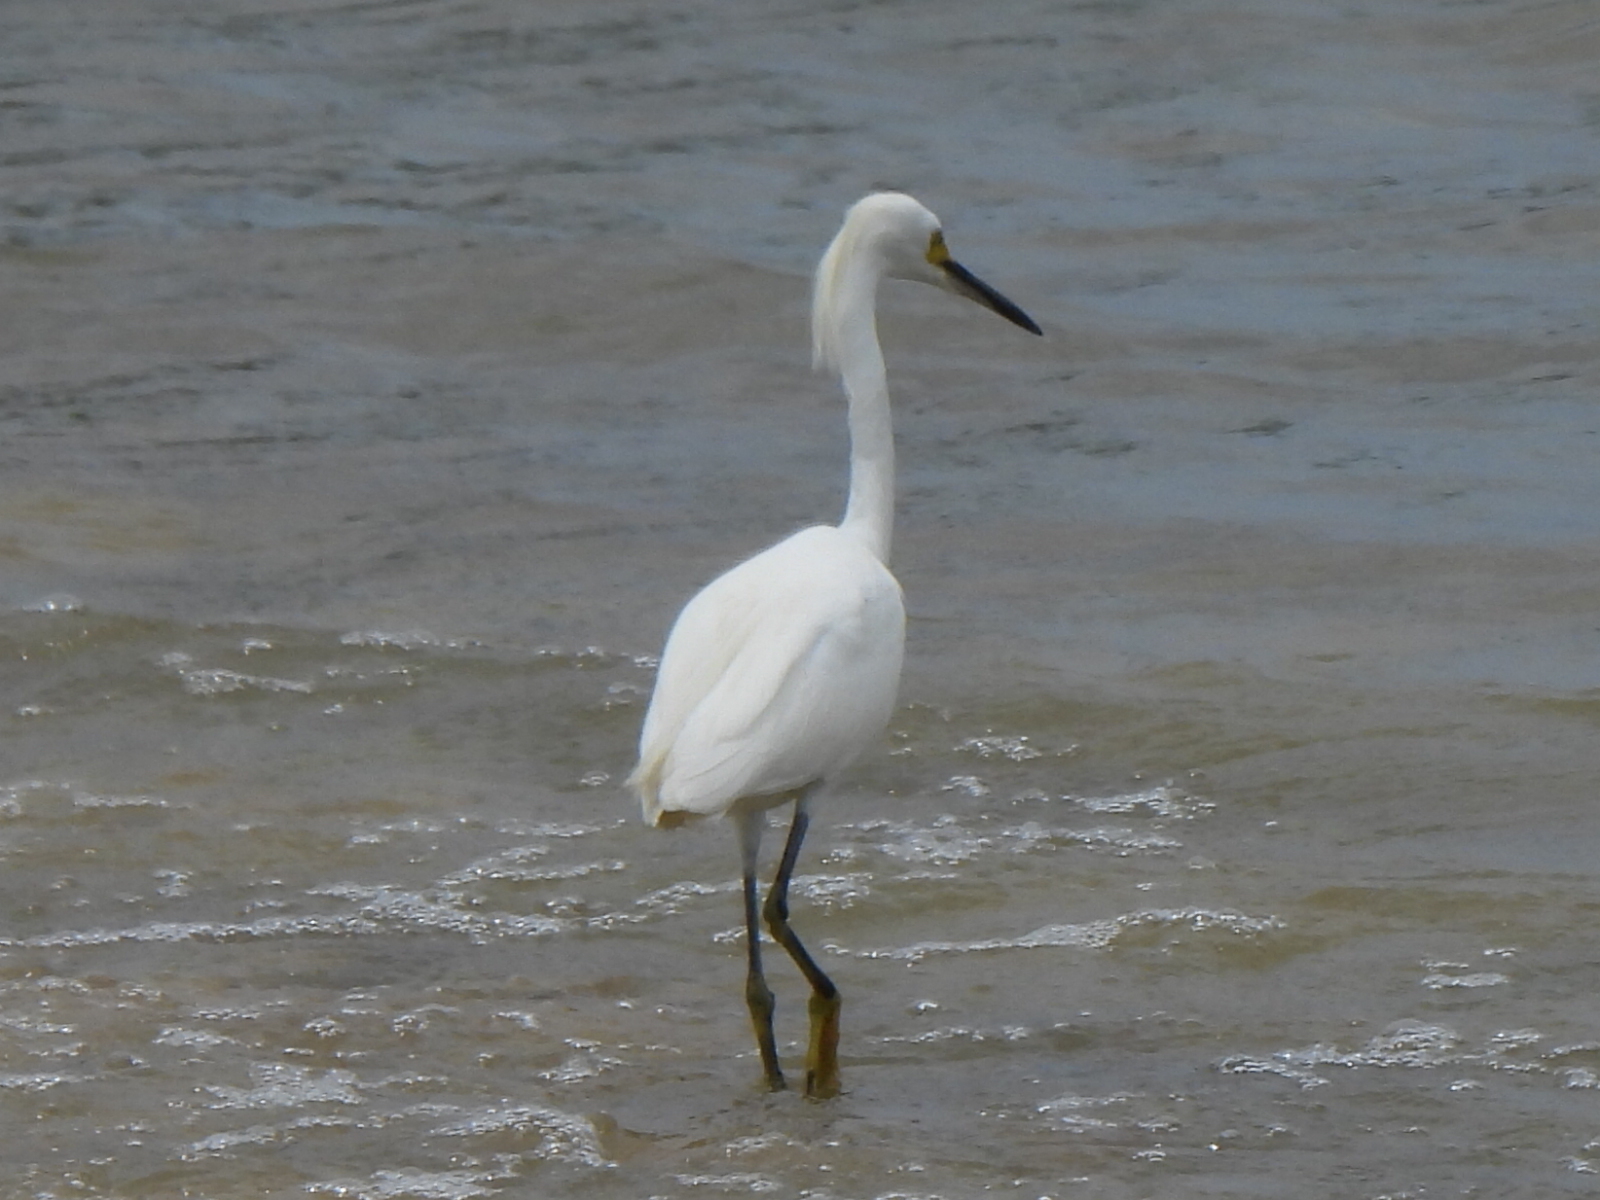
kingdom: Animalia
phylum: Chordata
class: Aves
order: Pelecaniformes
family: Ardeidae
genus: Egretta
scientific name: Egretta thula
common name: Snowy egret
